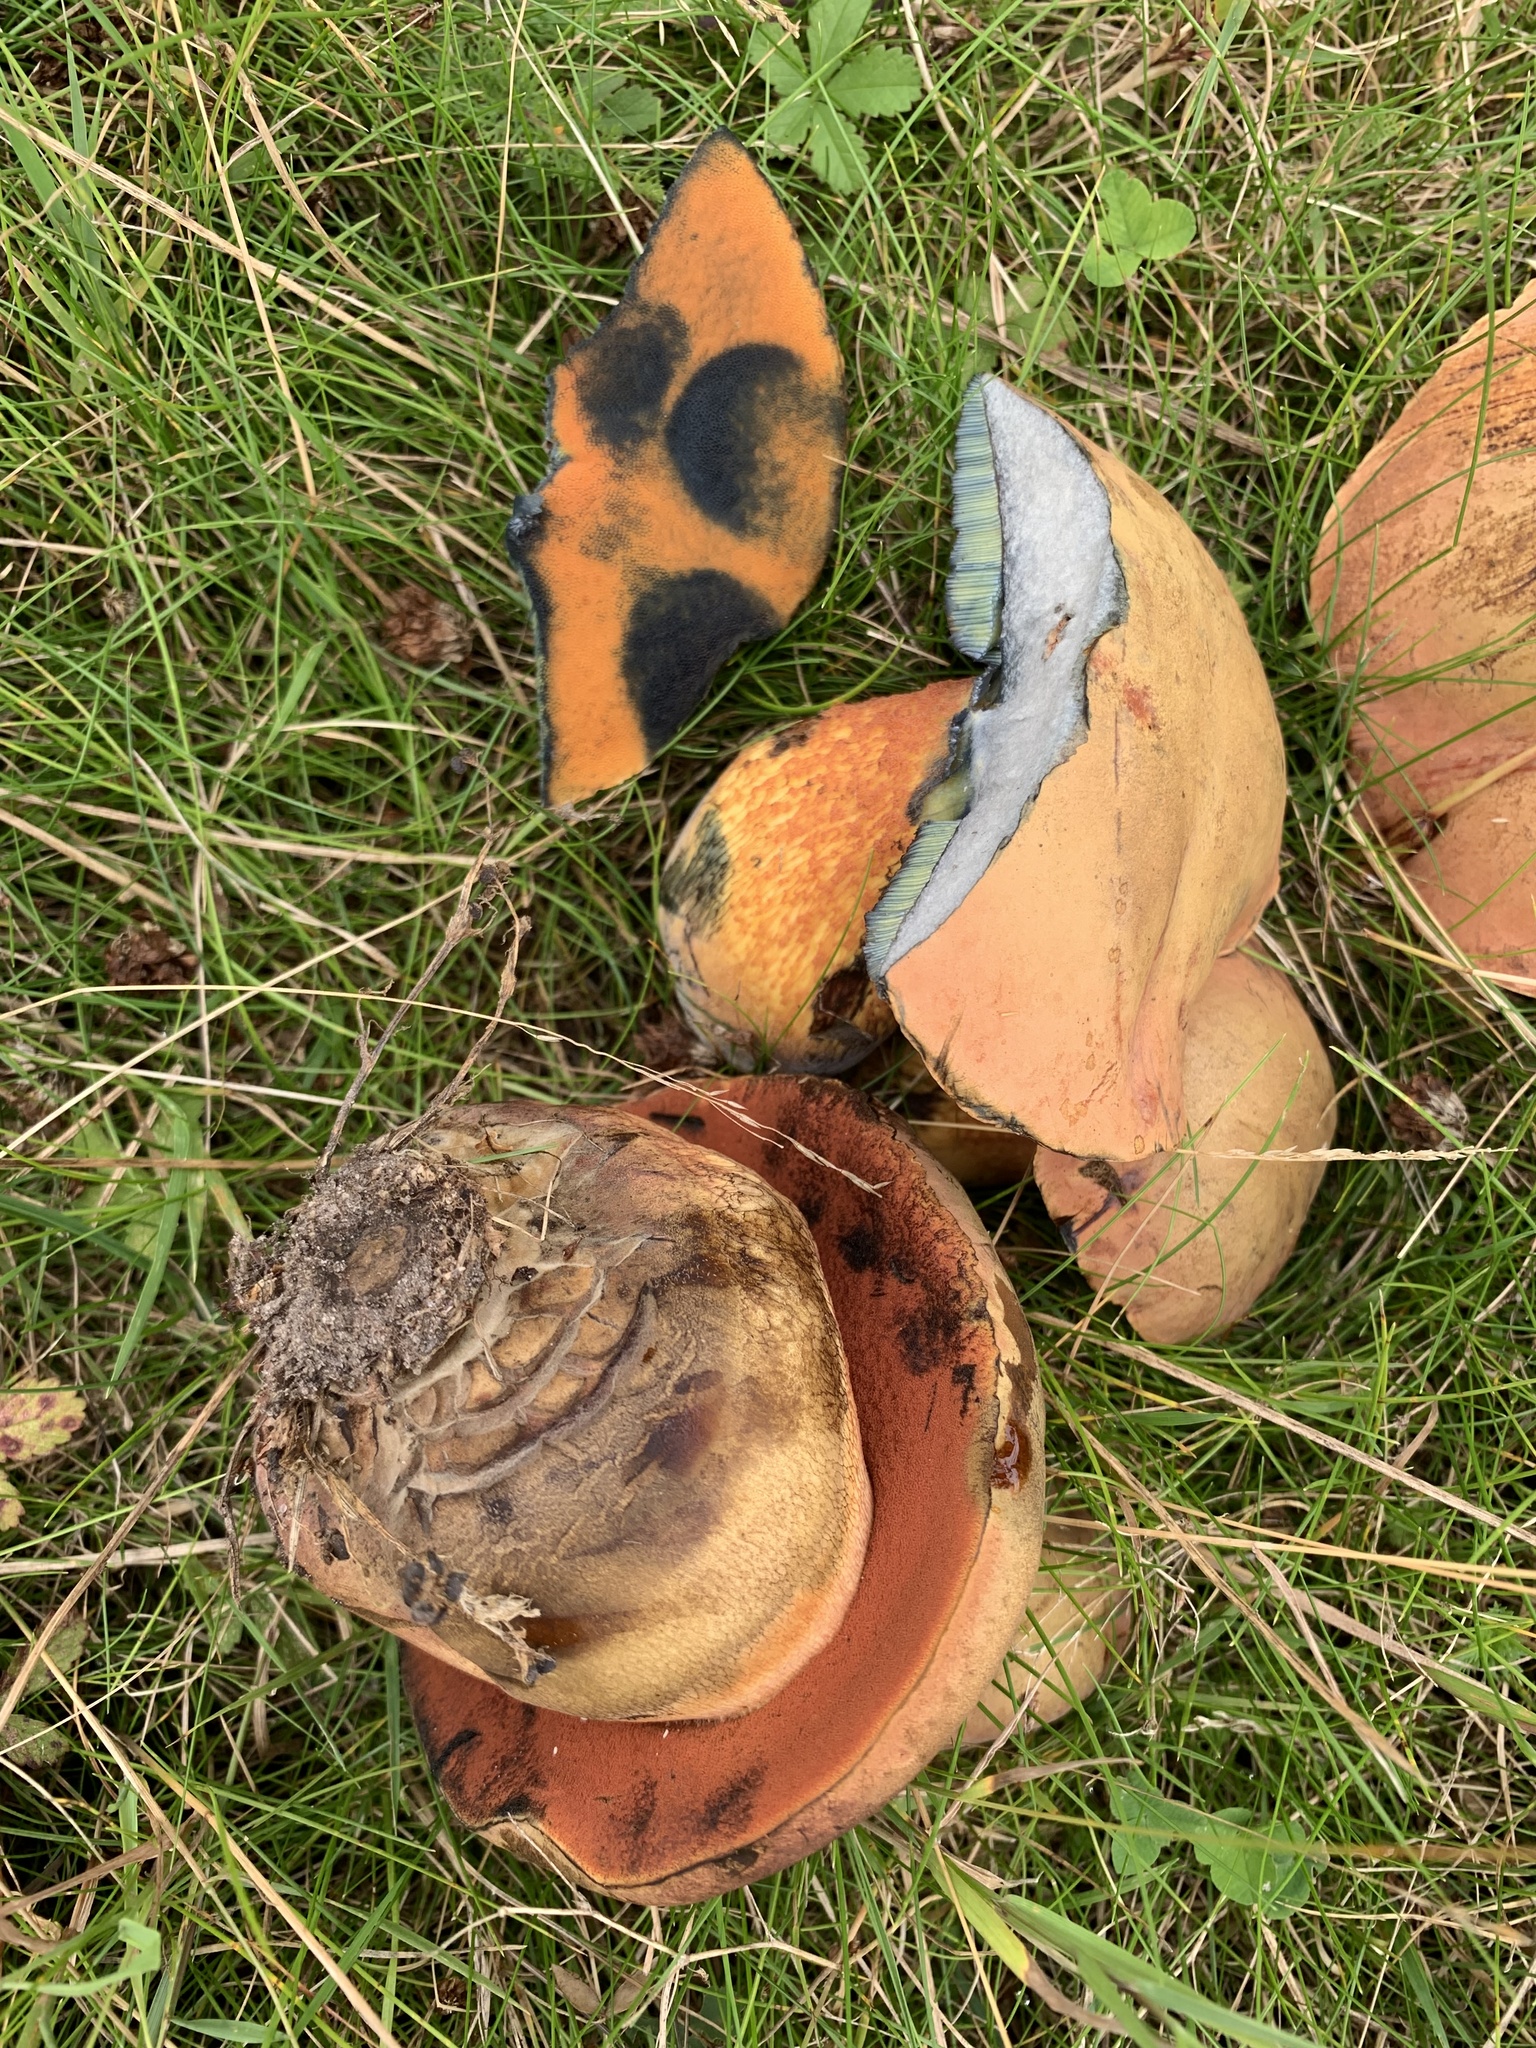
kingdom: Fungi
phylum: Basidiomycota
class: Agaricomycetes
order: Boletales
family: Boletaceae
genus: Suillellus
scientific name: Suillellus luridus
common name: Lurid bolete
